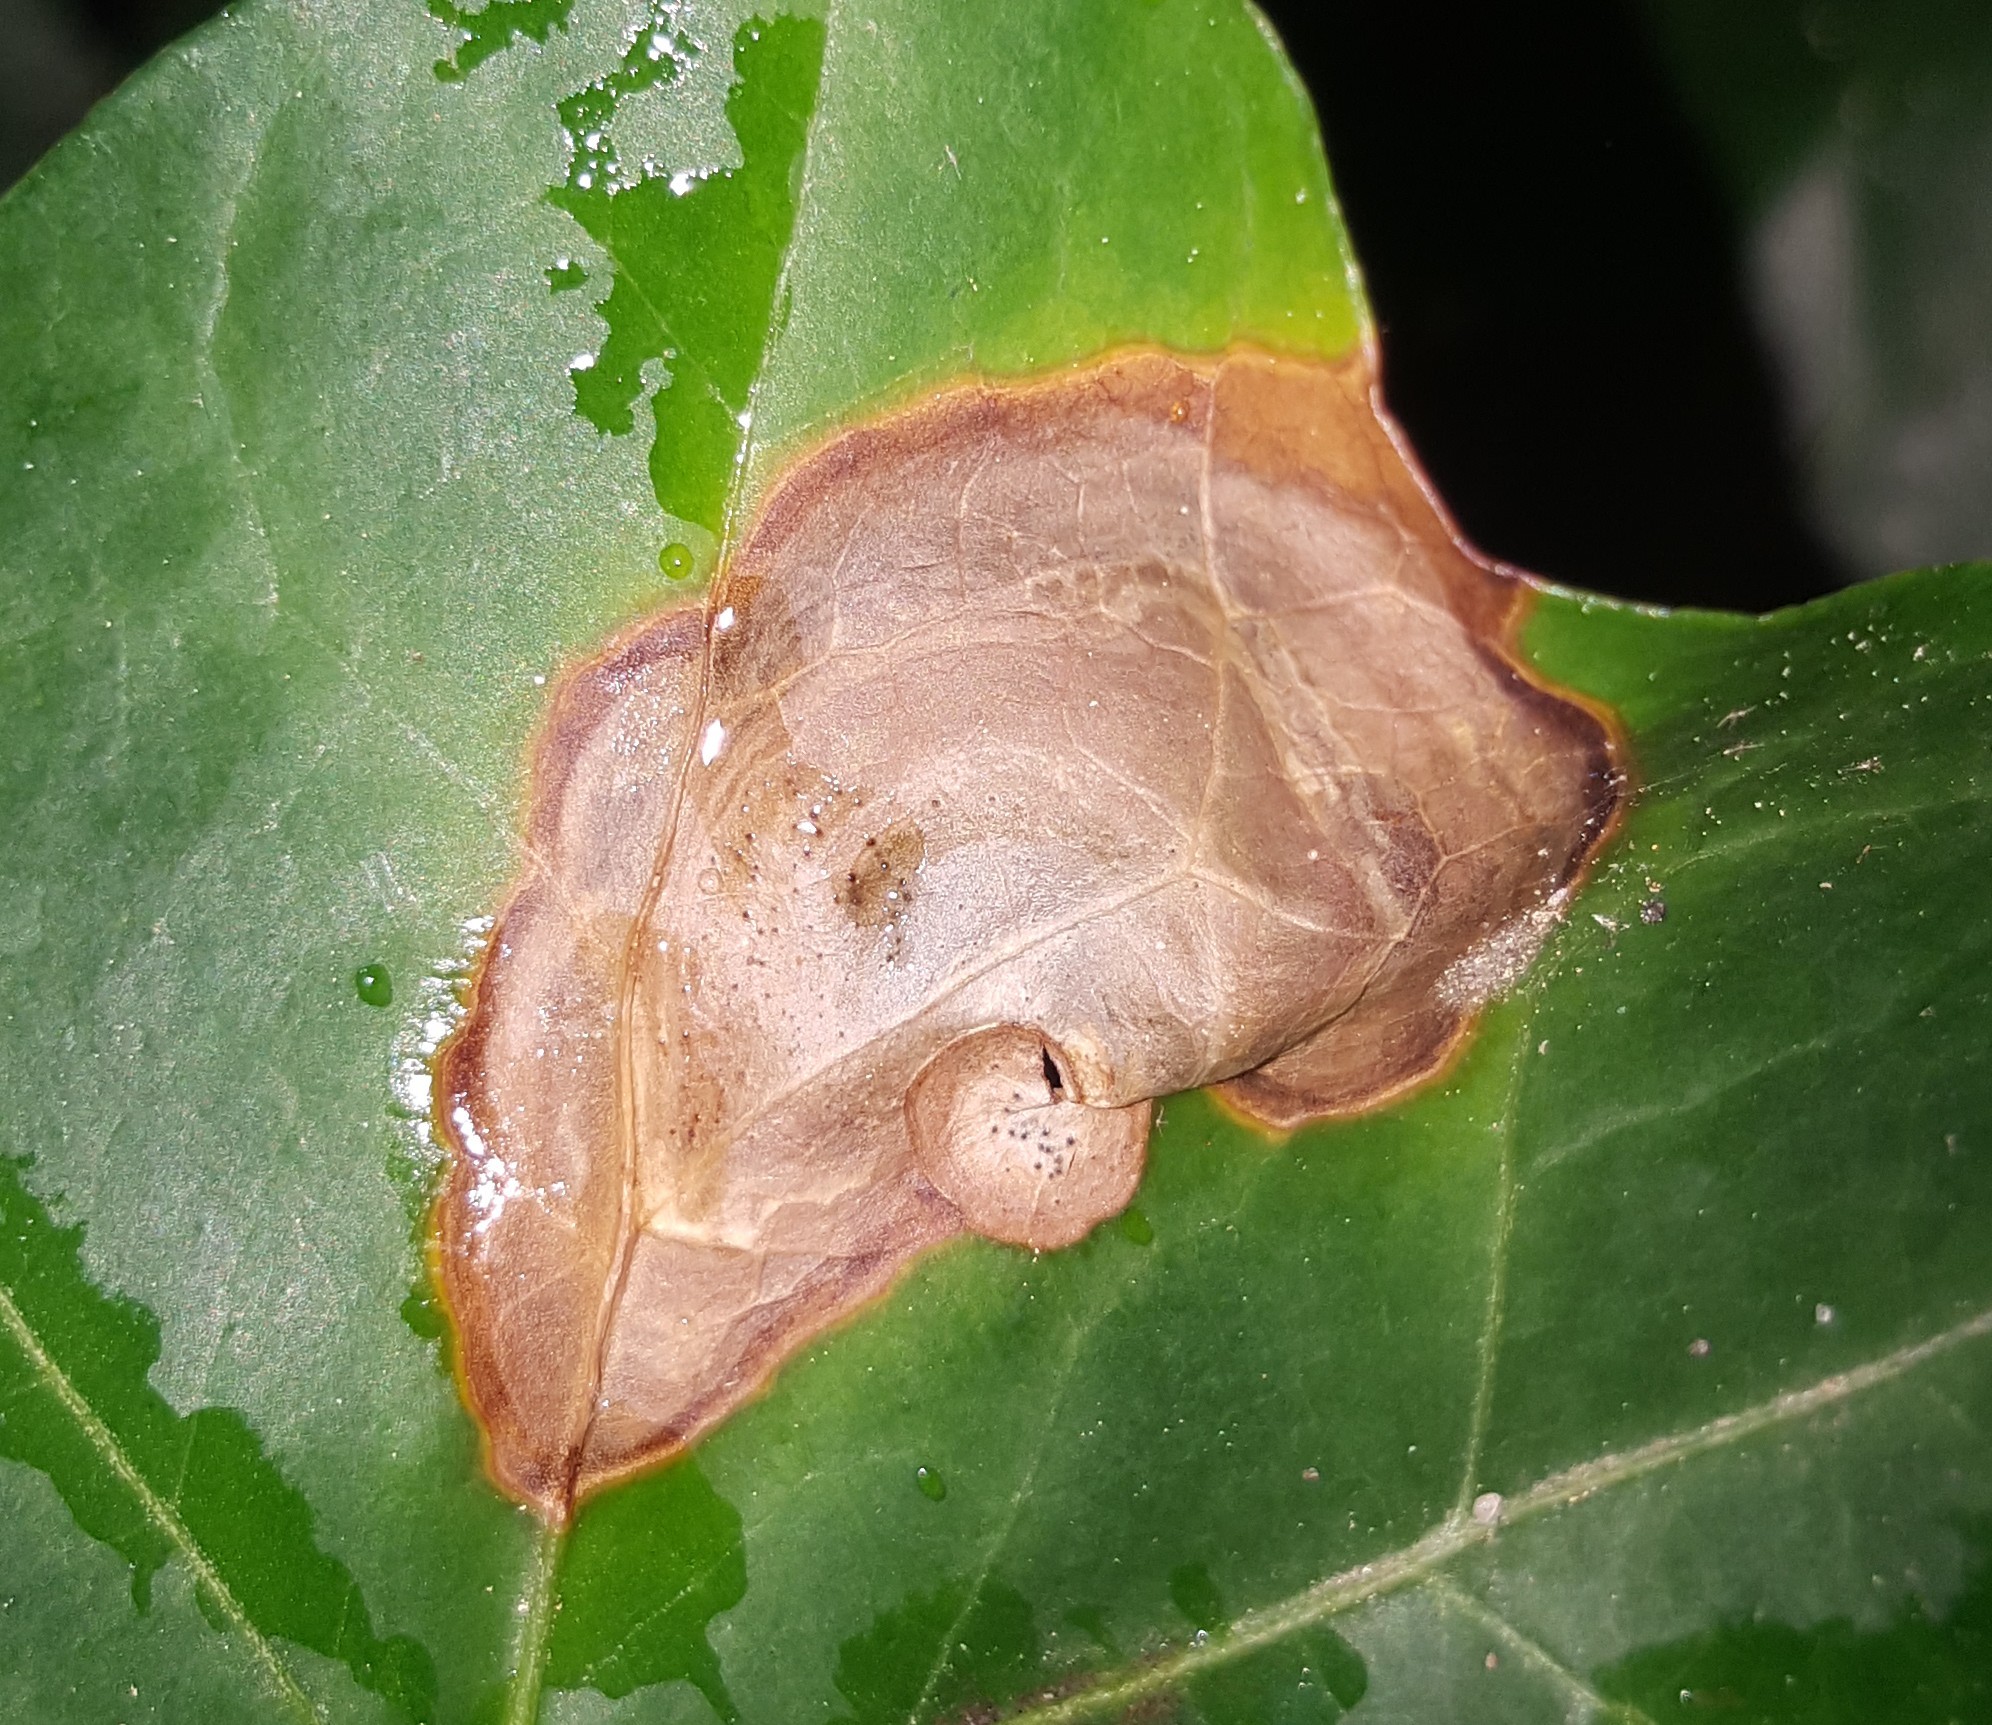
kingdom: Fungi
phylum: Ascomycota
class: Dothideomycetes
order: Pleosporales
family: Didymellaceae
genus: Boeremia
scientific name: Boeremia hedericola
